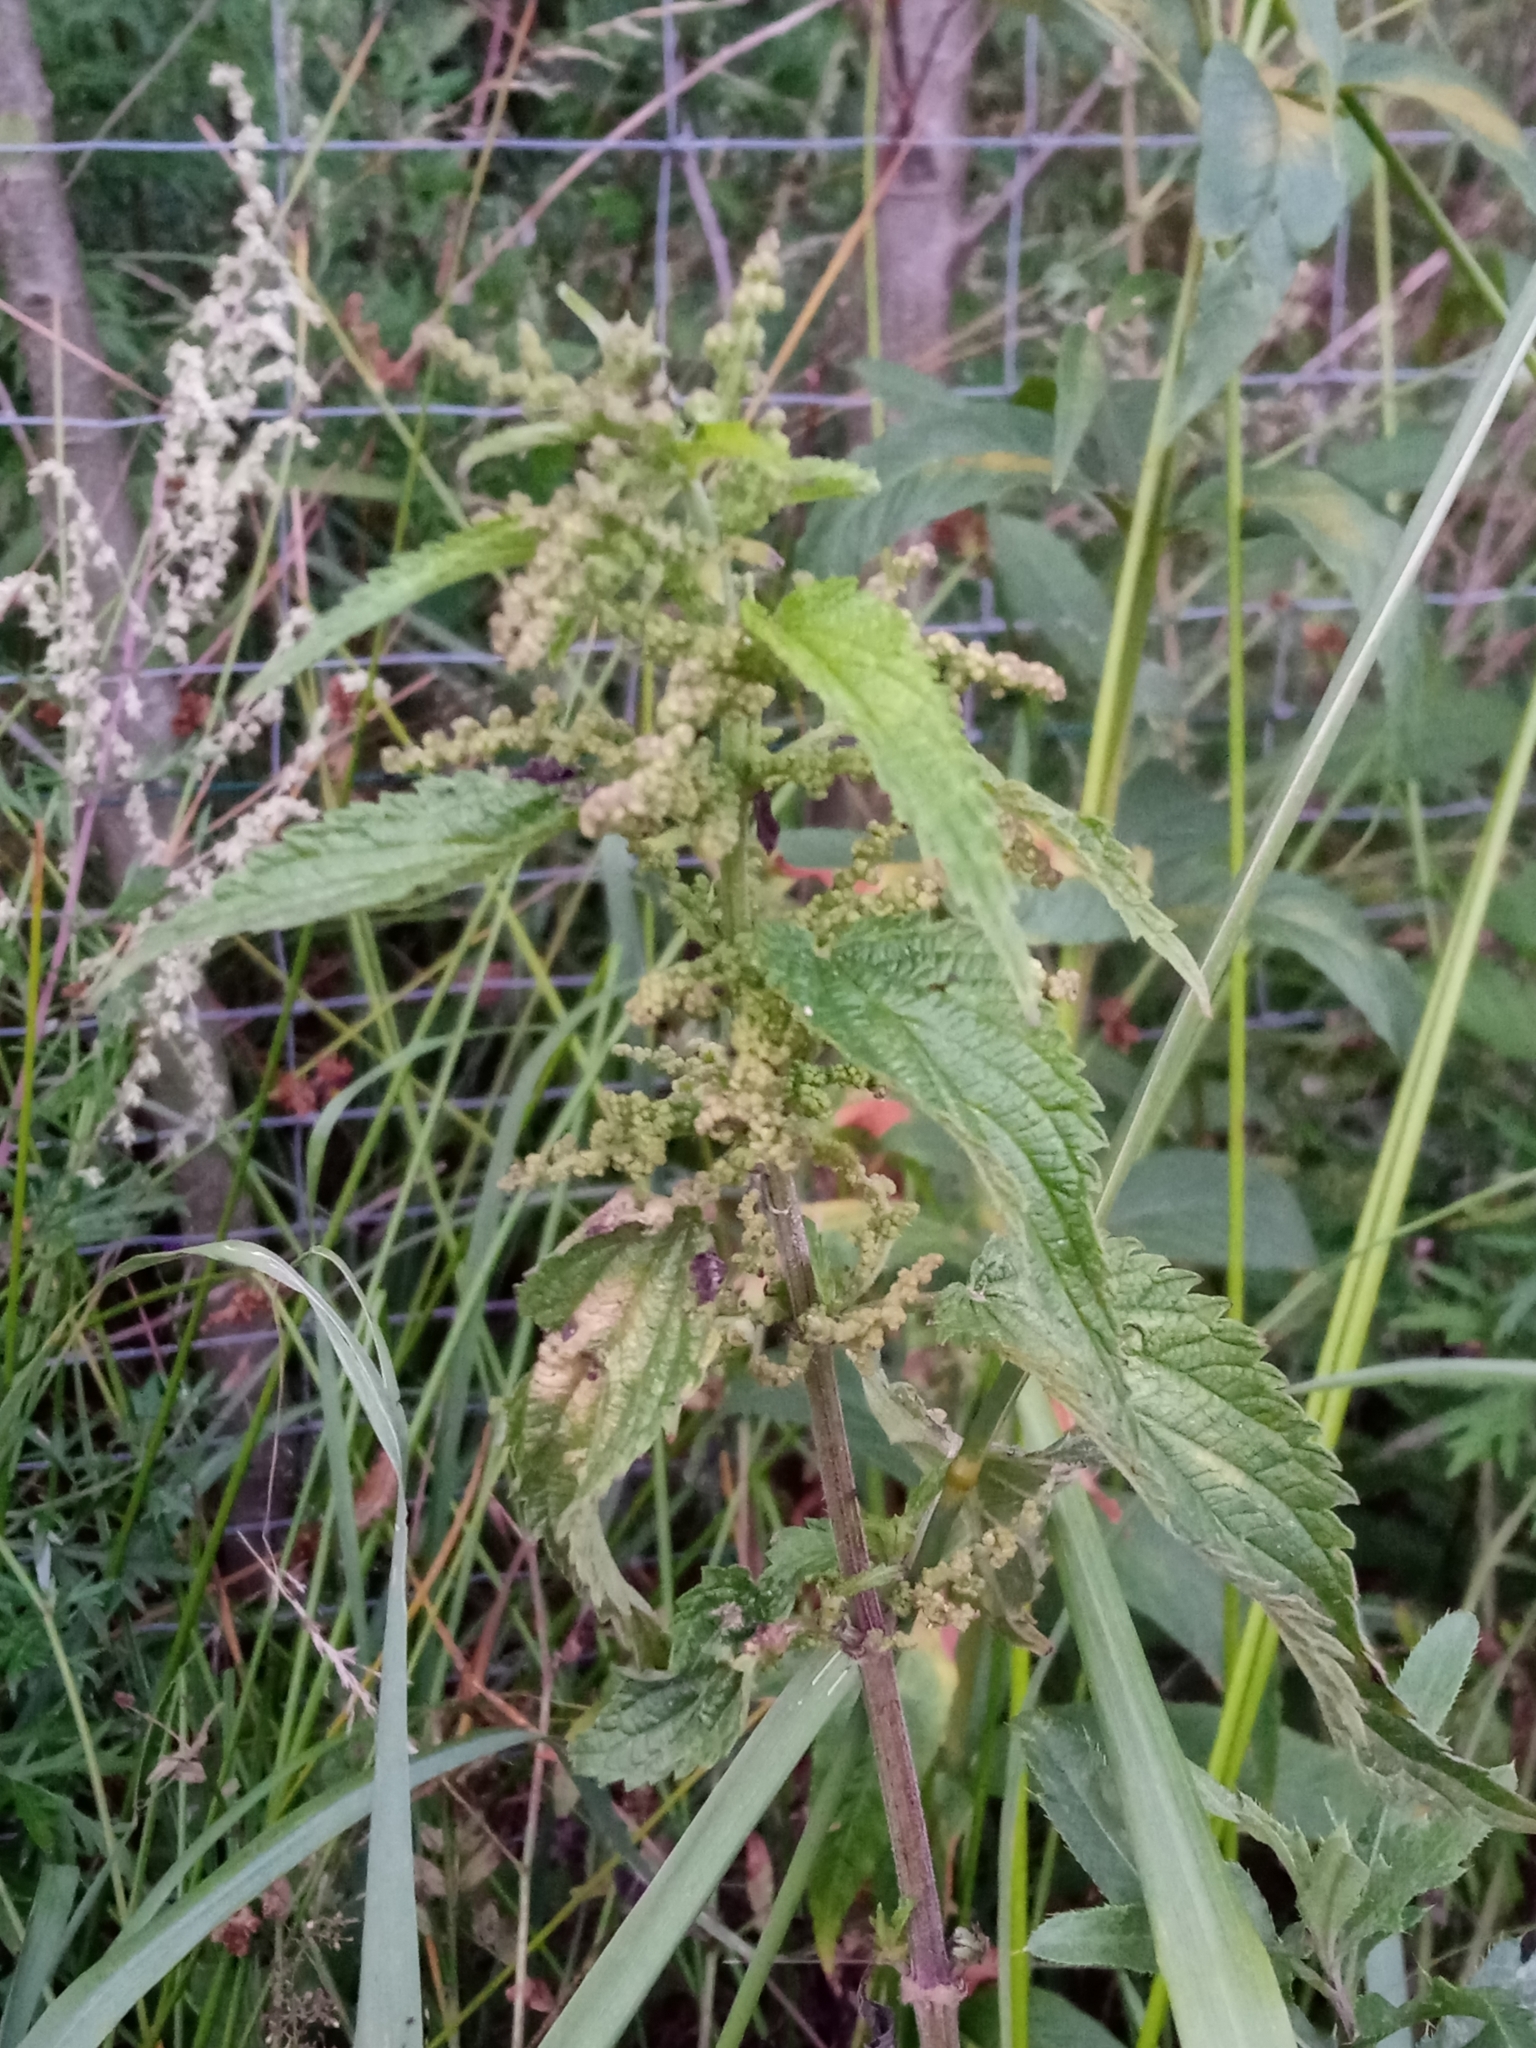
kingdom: Plantae
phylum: Tracheophyta
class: Magnoliopsida
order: Rosales
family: Urticaceae
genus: Urtica
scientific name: Urtica dioica
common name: Common nettle
